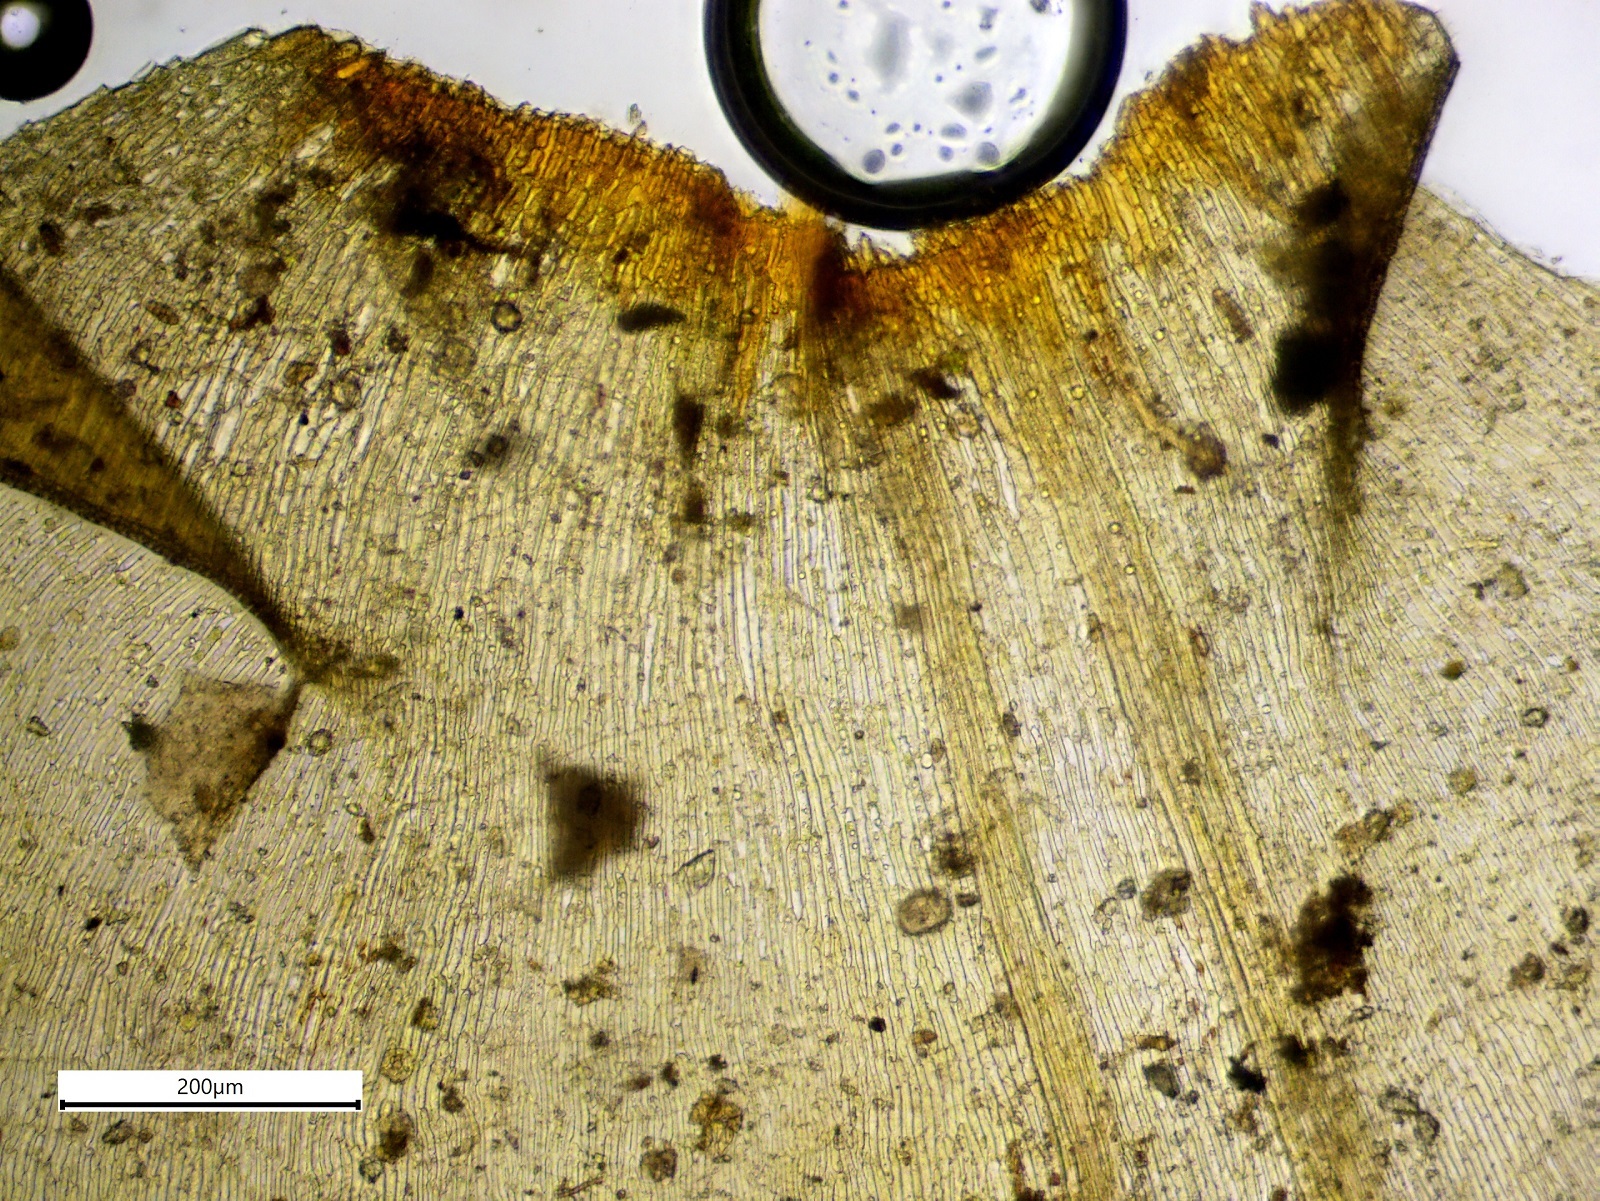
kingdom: Plantae
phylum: Bryophyta
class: Bryopsida
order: Hypnales
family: Hylocomiaceae
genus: Hylocomiadelphus
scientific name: Hylocomiadelphus triquetrus
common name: Rough goose neck moss
